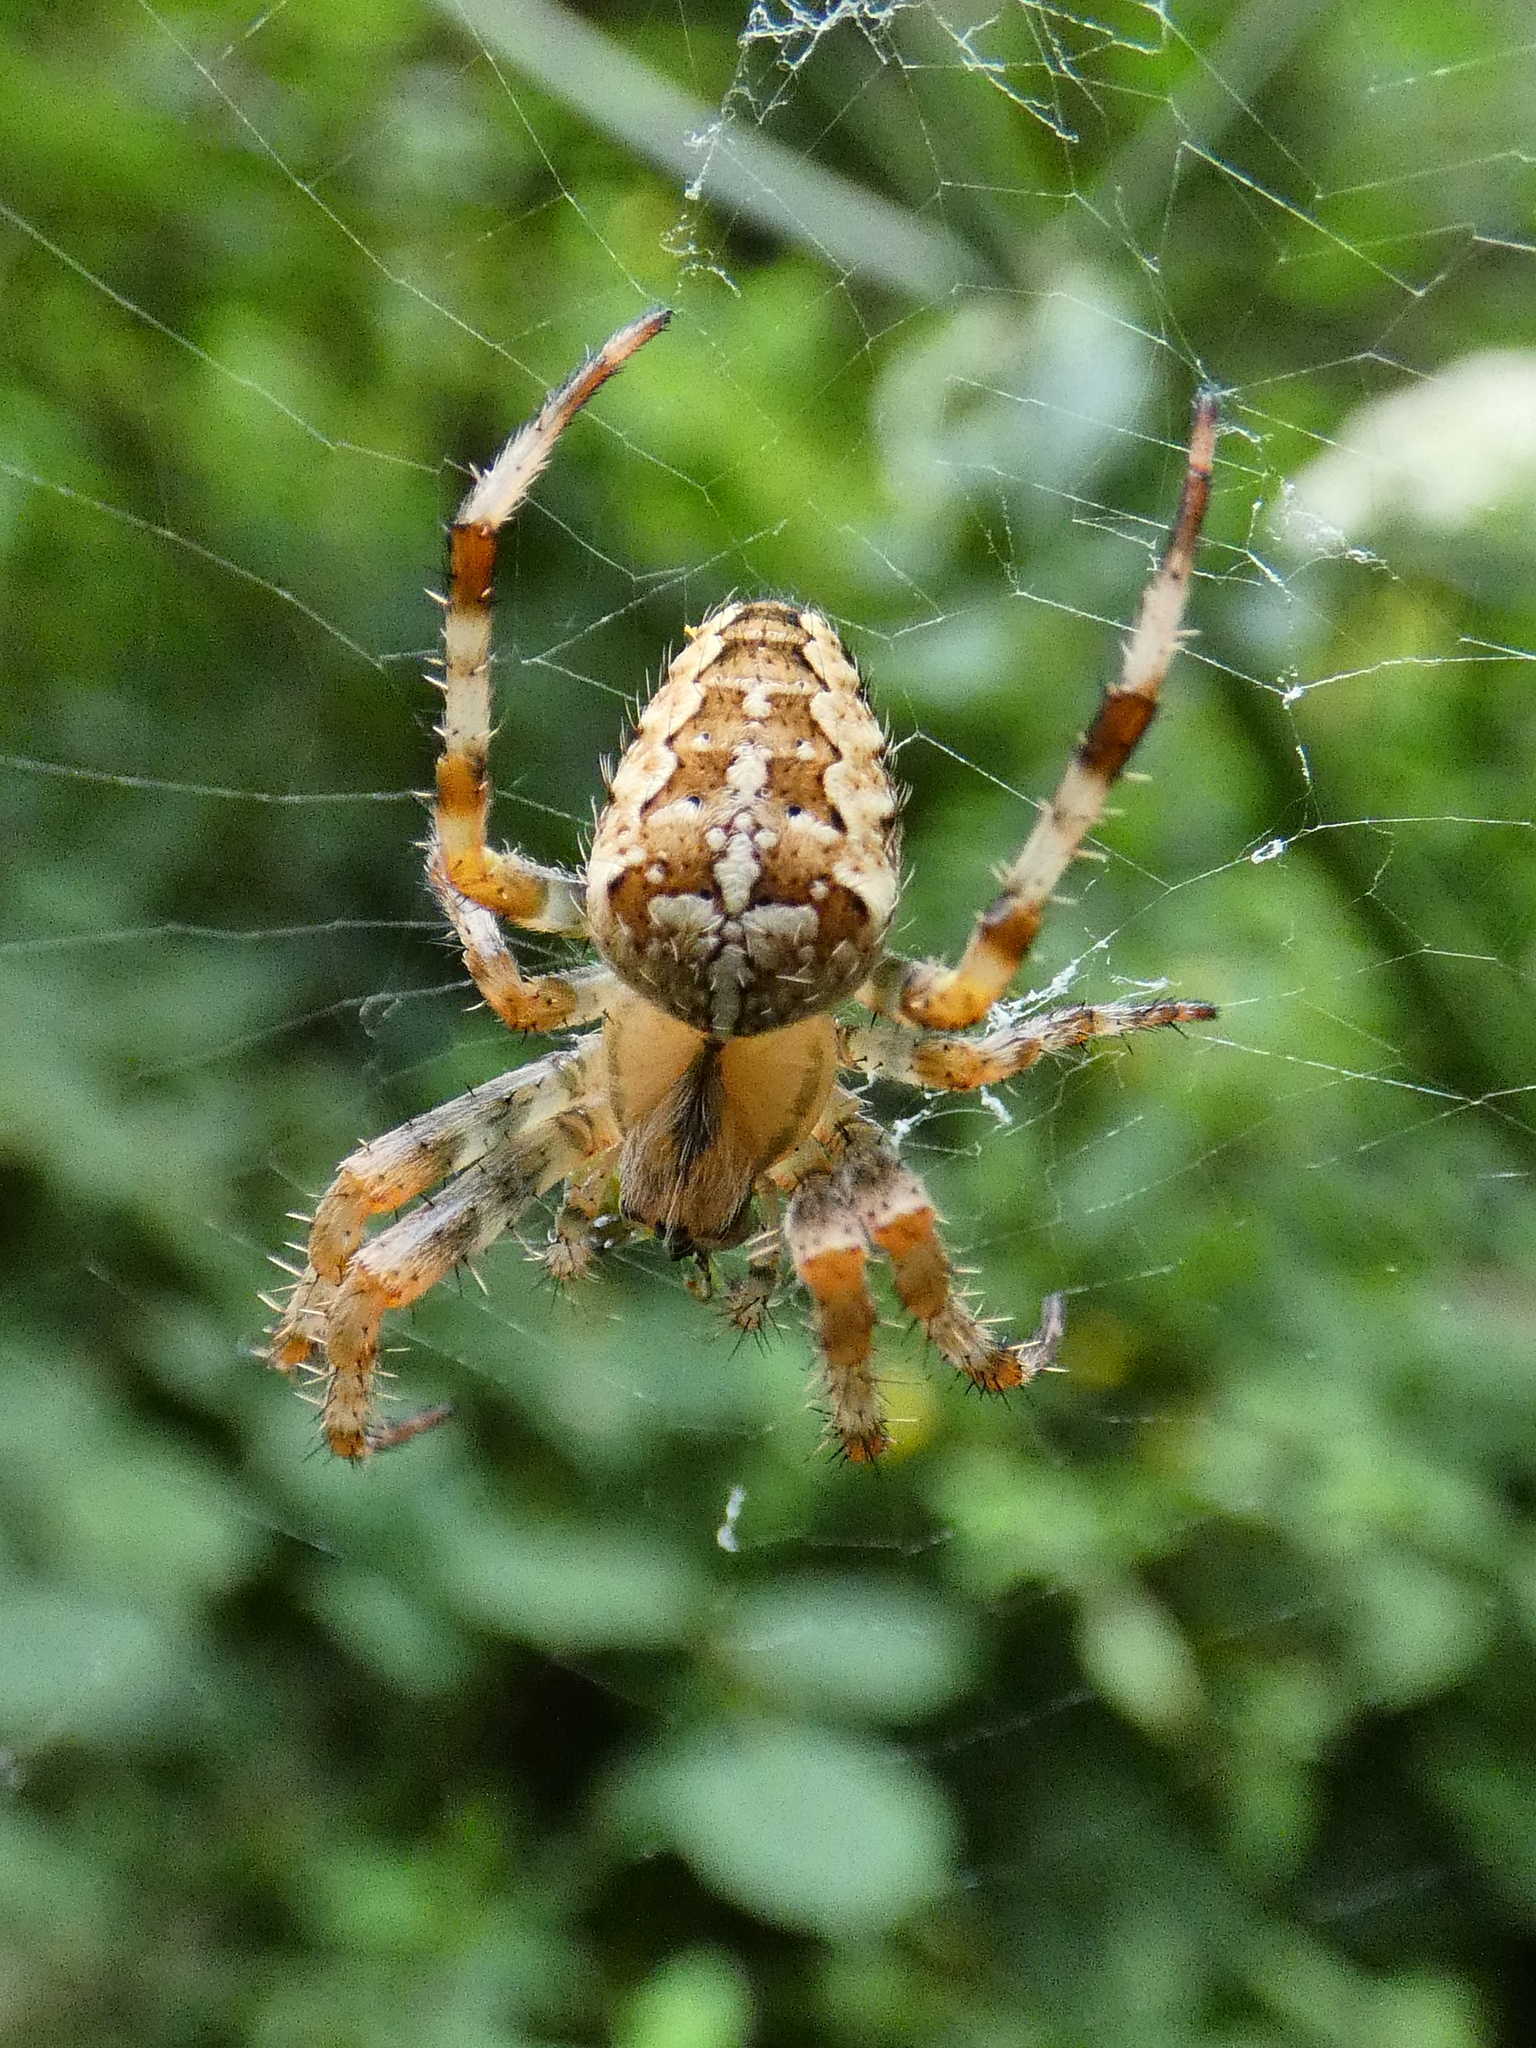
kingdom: Animalia
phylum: Arthropoda
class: Arachnida
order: Araneae
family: Araneidae
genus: Araneus
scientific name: Araneus diadematus
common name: Cross orbweaver
